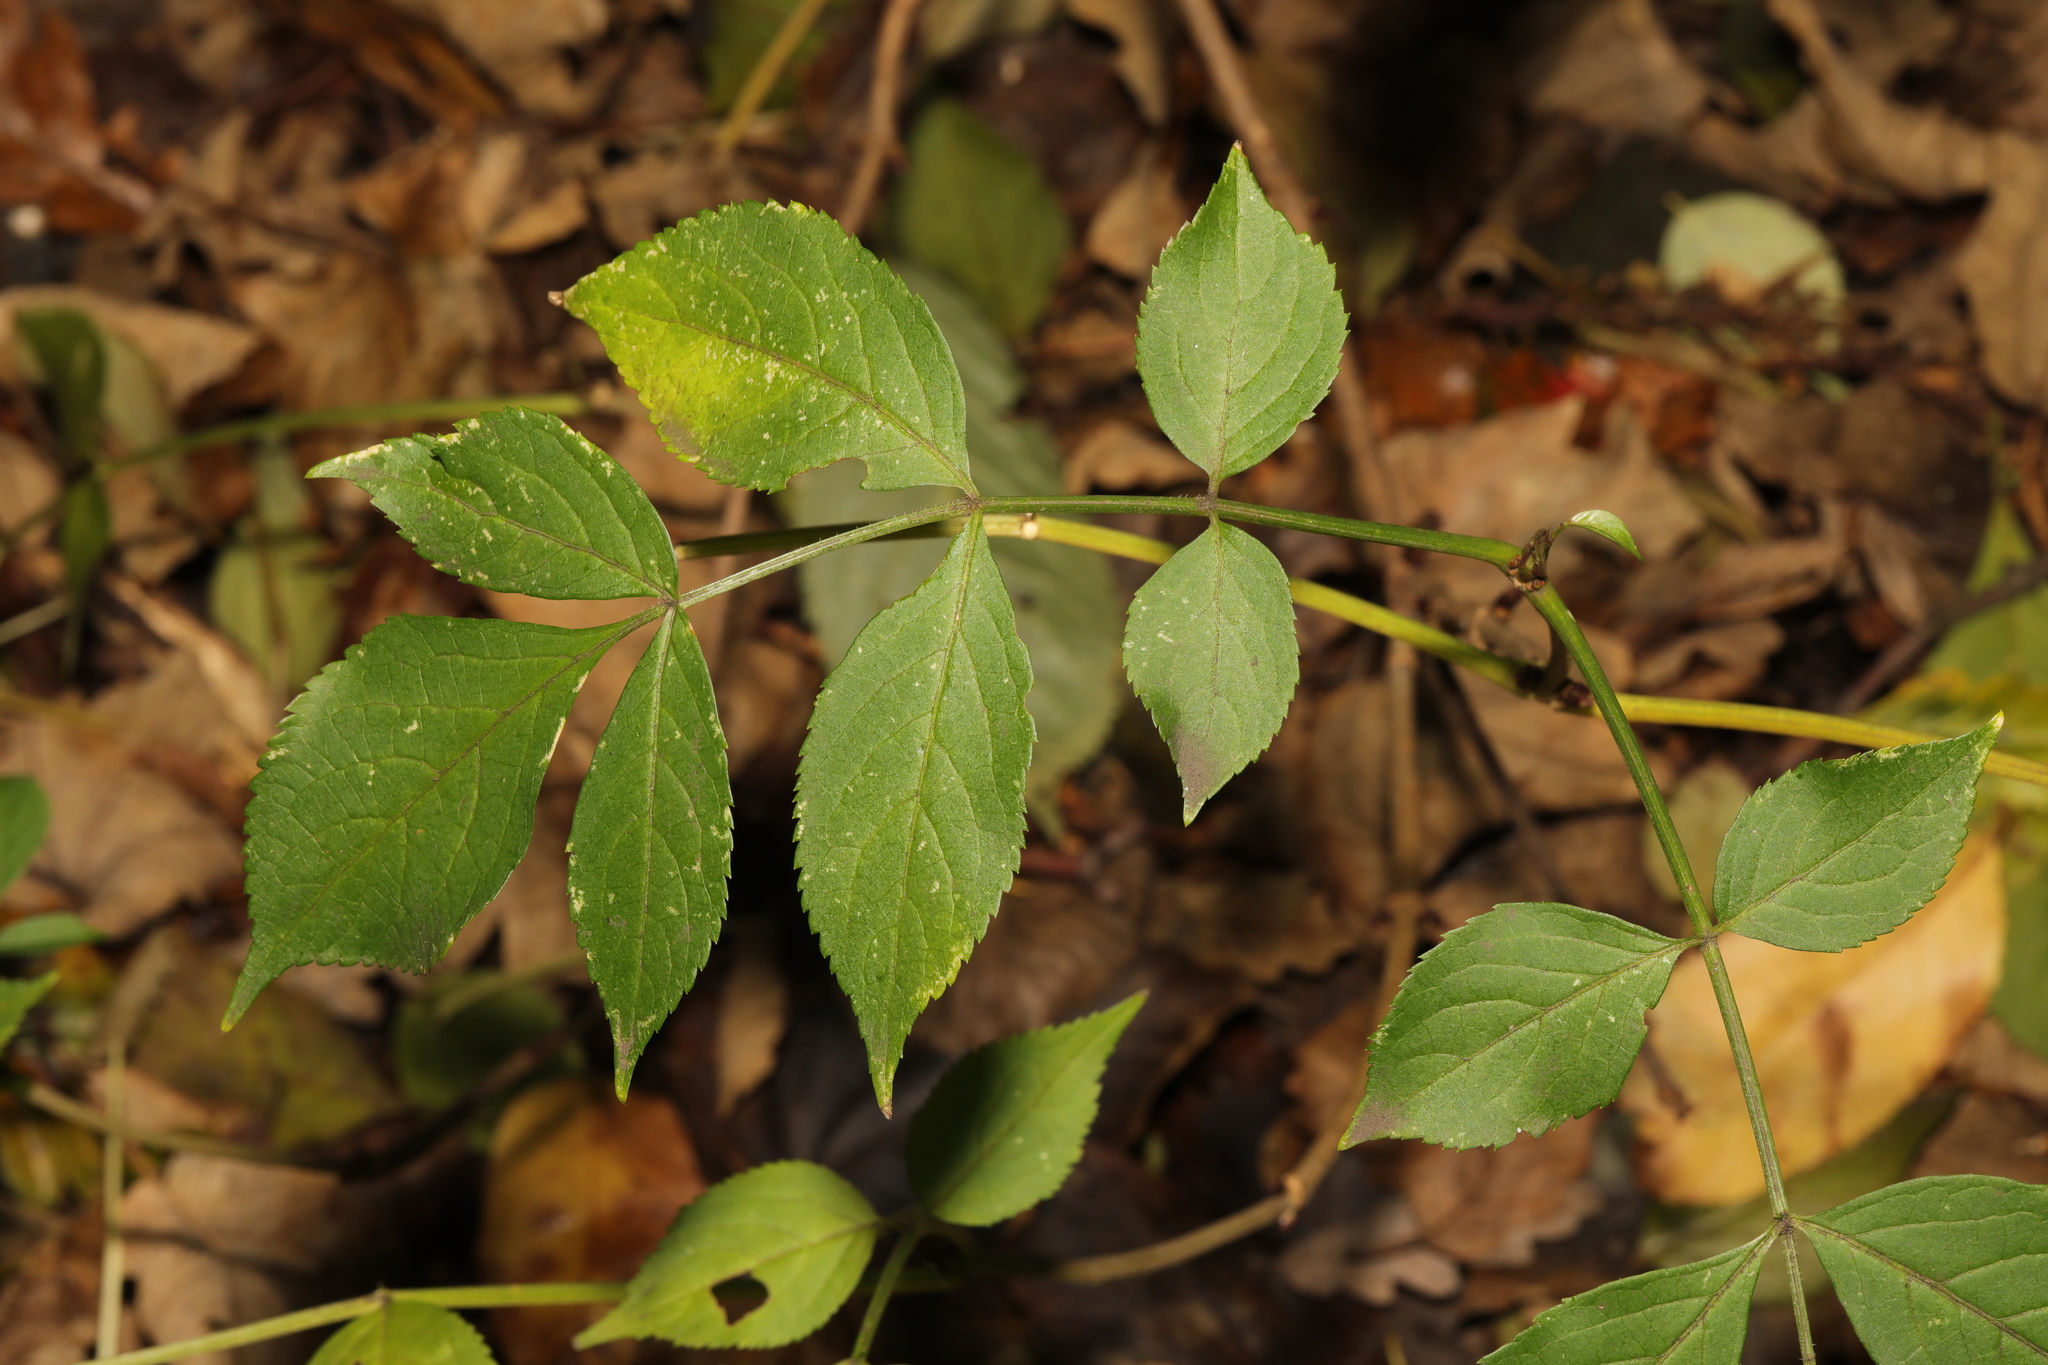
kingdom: Plantae
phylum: Tracheophyta
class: Magnoliopsida
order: Dipsacales
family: Viburnaceae
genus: Sambucus
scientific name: Sambucus nigra
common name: Elder
